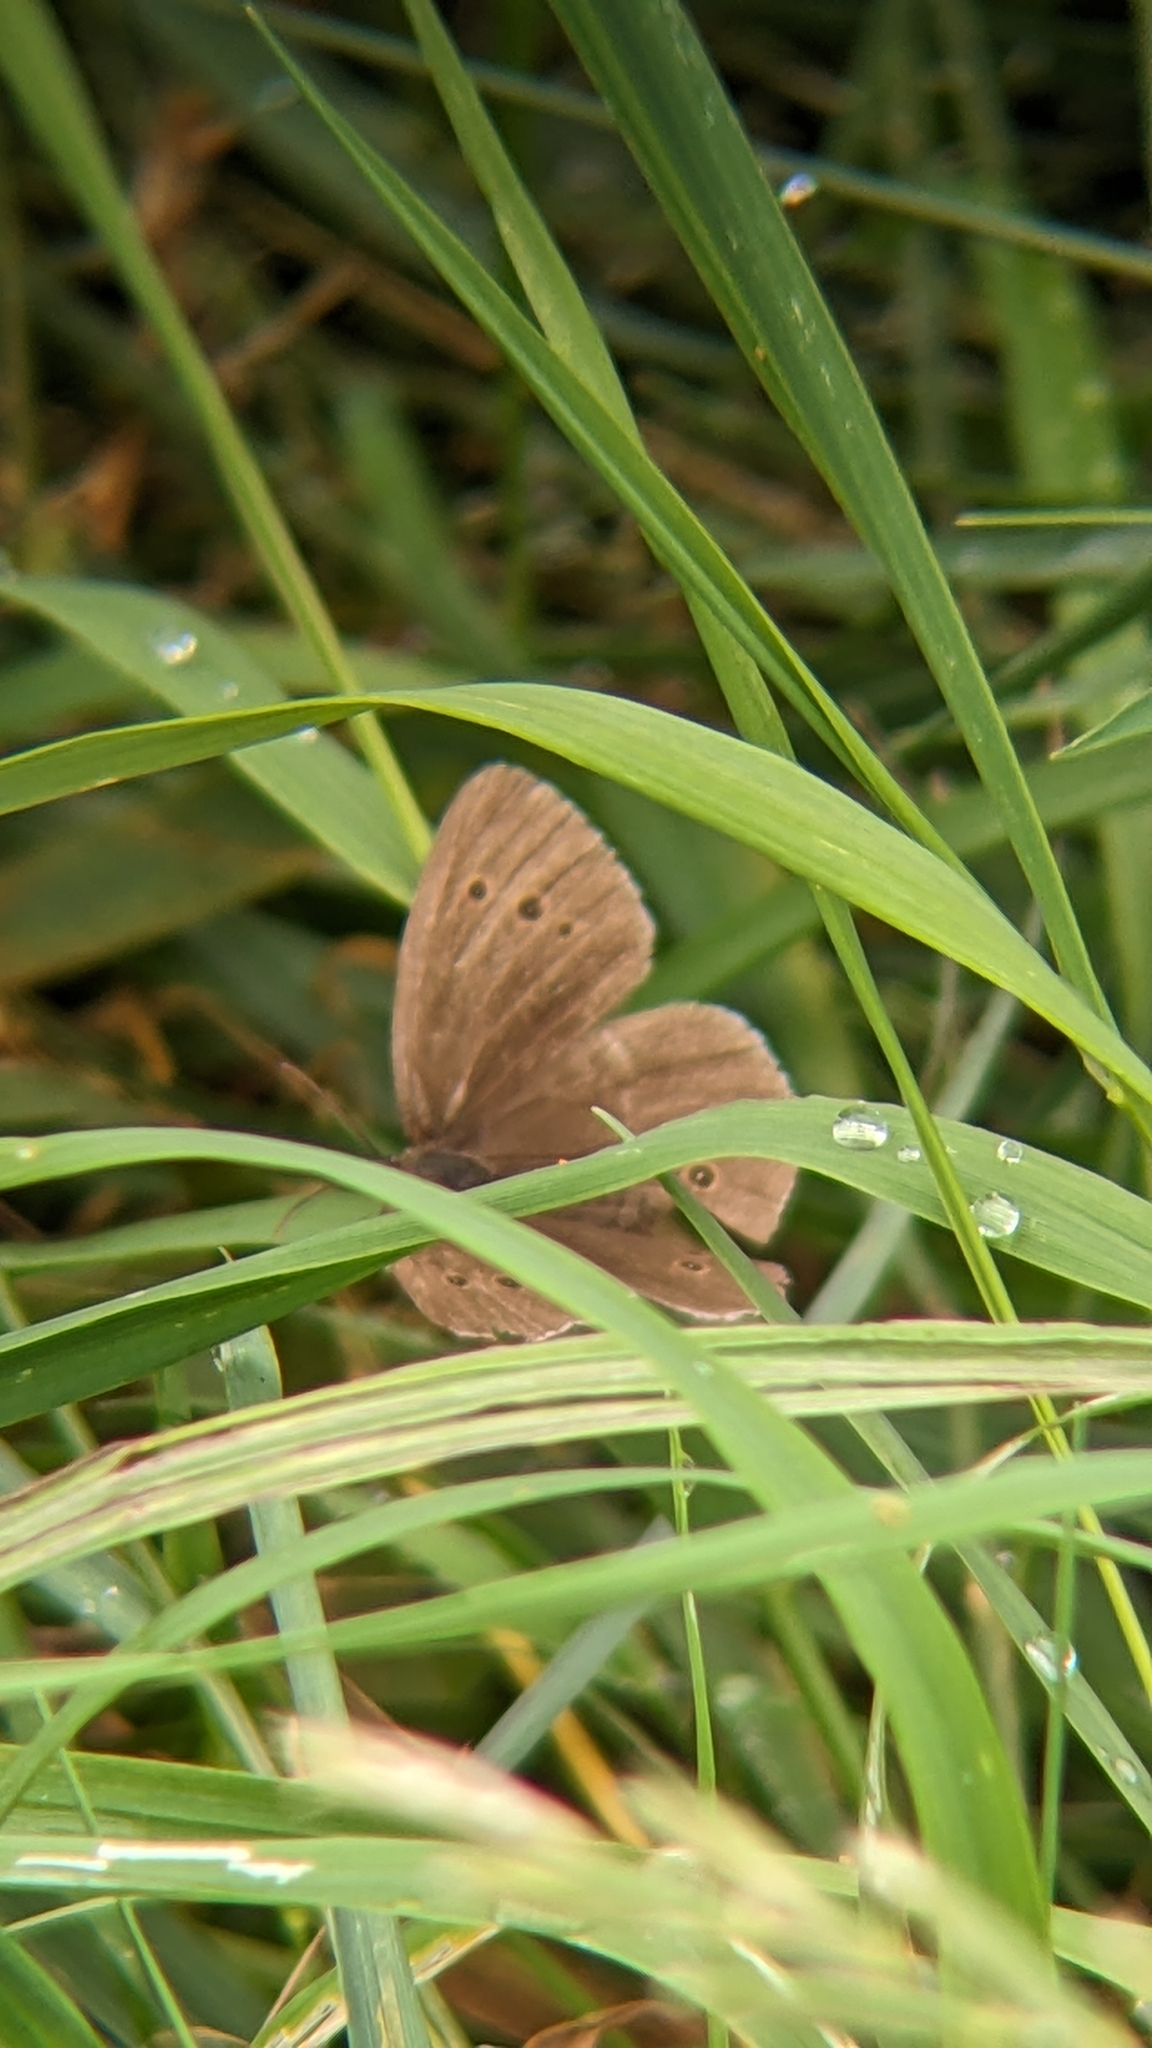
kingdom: Animalia
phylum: Arthropoda
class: Insecta
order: Lepidoptera
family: Nymphalidae
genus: Aphantopus
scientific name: Aphantopus hyperantus
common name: Ringlet
